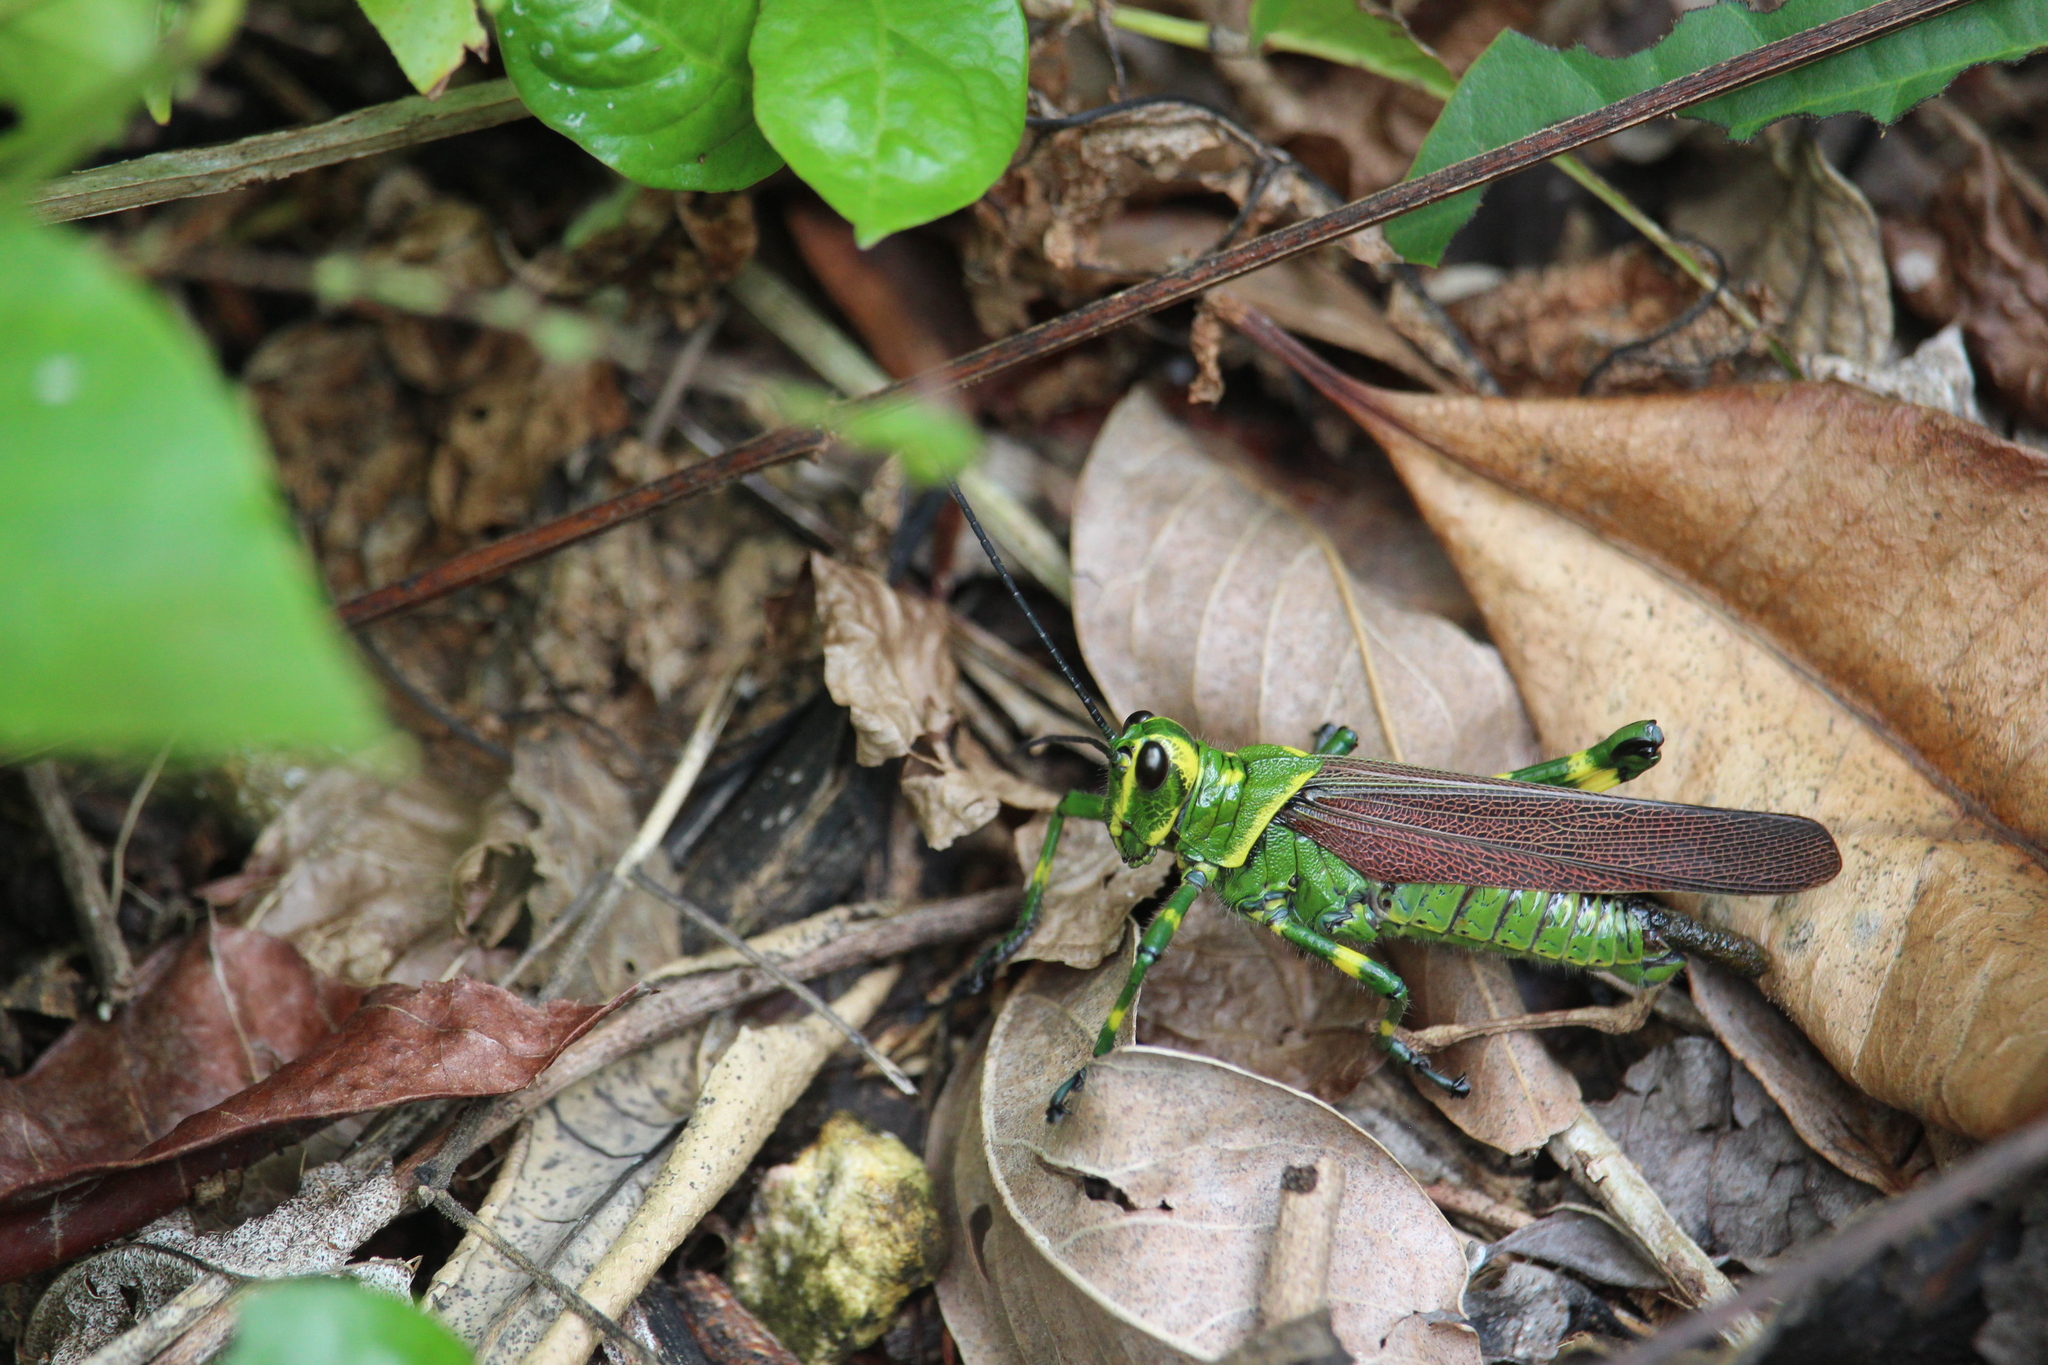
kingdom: Animalia
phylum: Arthropoda
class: Insecta
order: Orthoptera
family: Romaleidae
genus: Chromacris
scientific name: Chromacris miles
